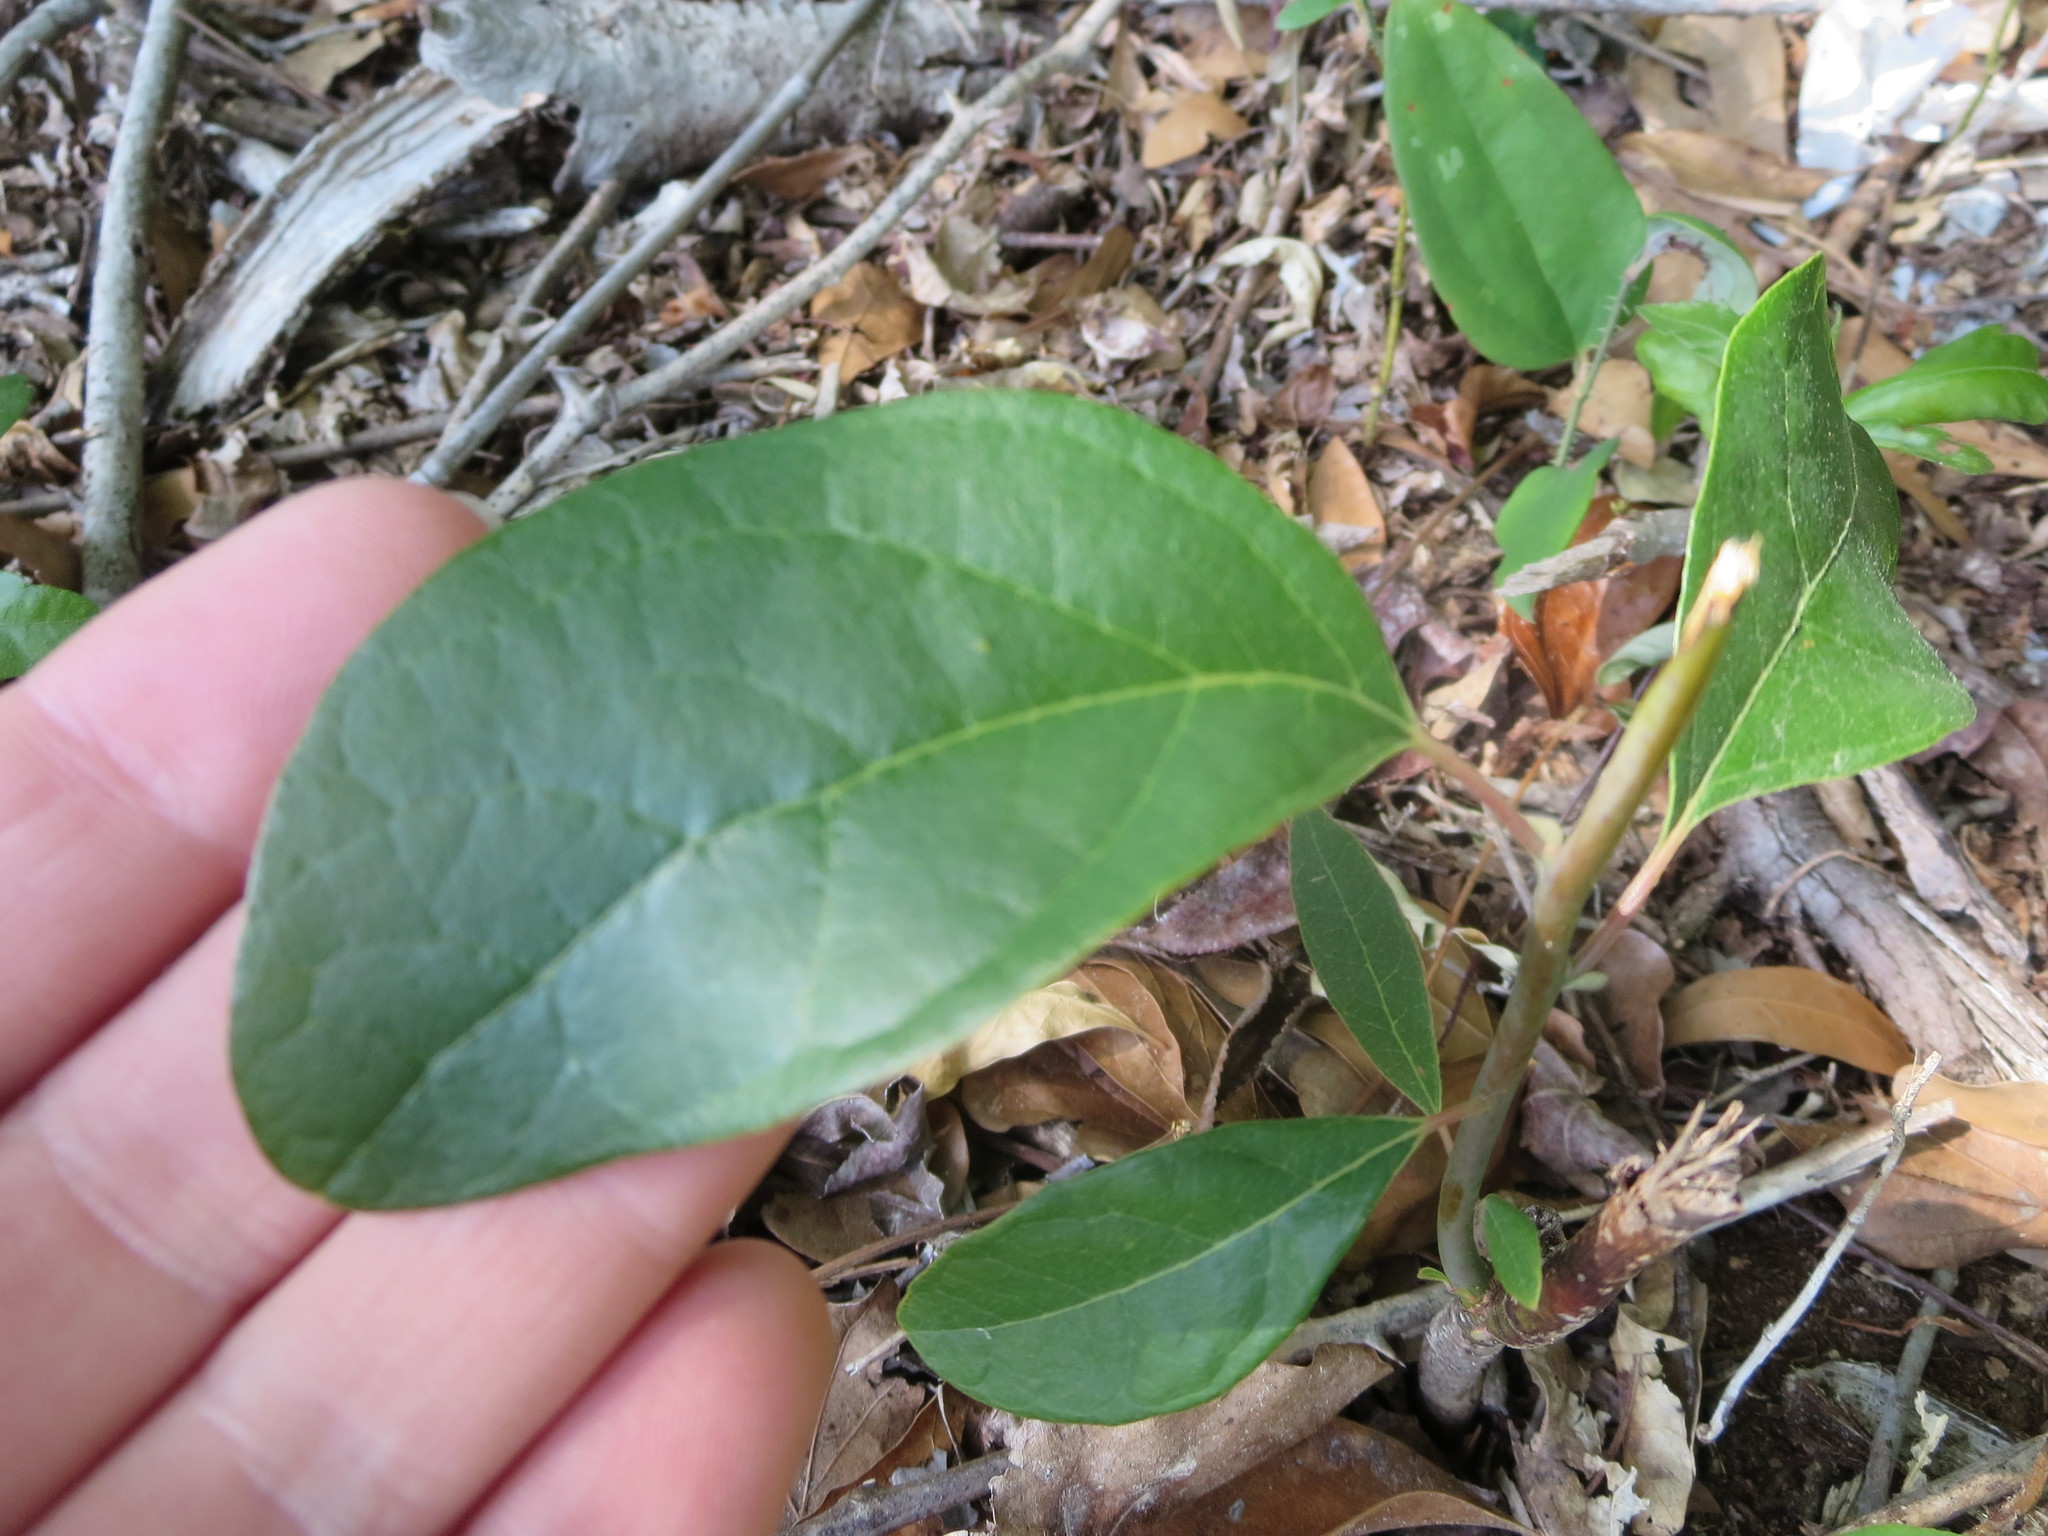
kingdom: Plantae
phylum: Tracheophyta
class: Magnoliopsida
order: Ericales
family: Ebenaceae
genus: Diospyros
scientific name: Diospyros virginiana
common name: Persimmon
